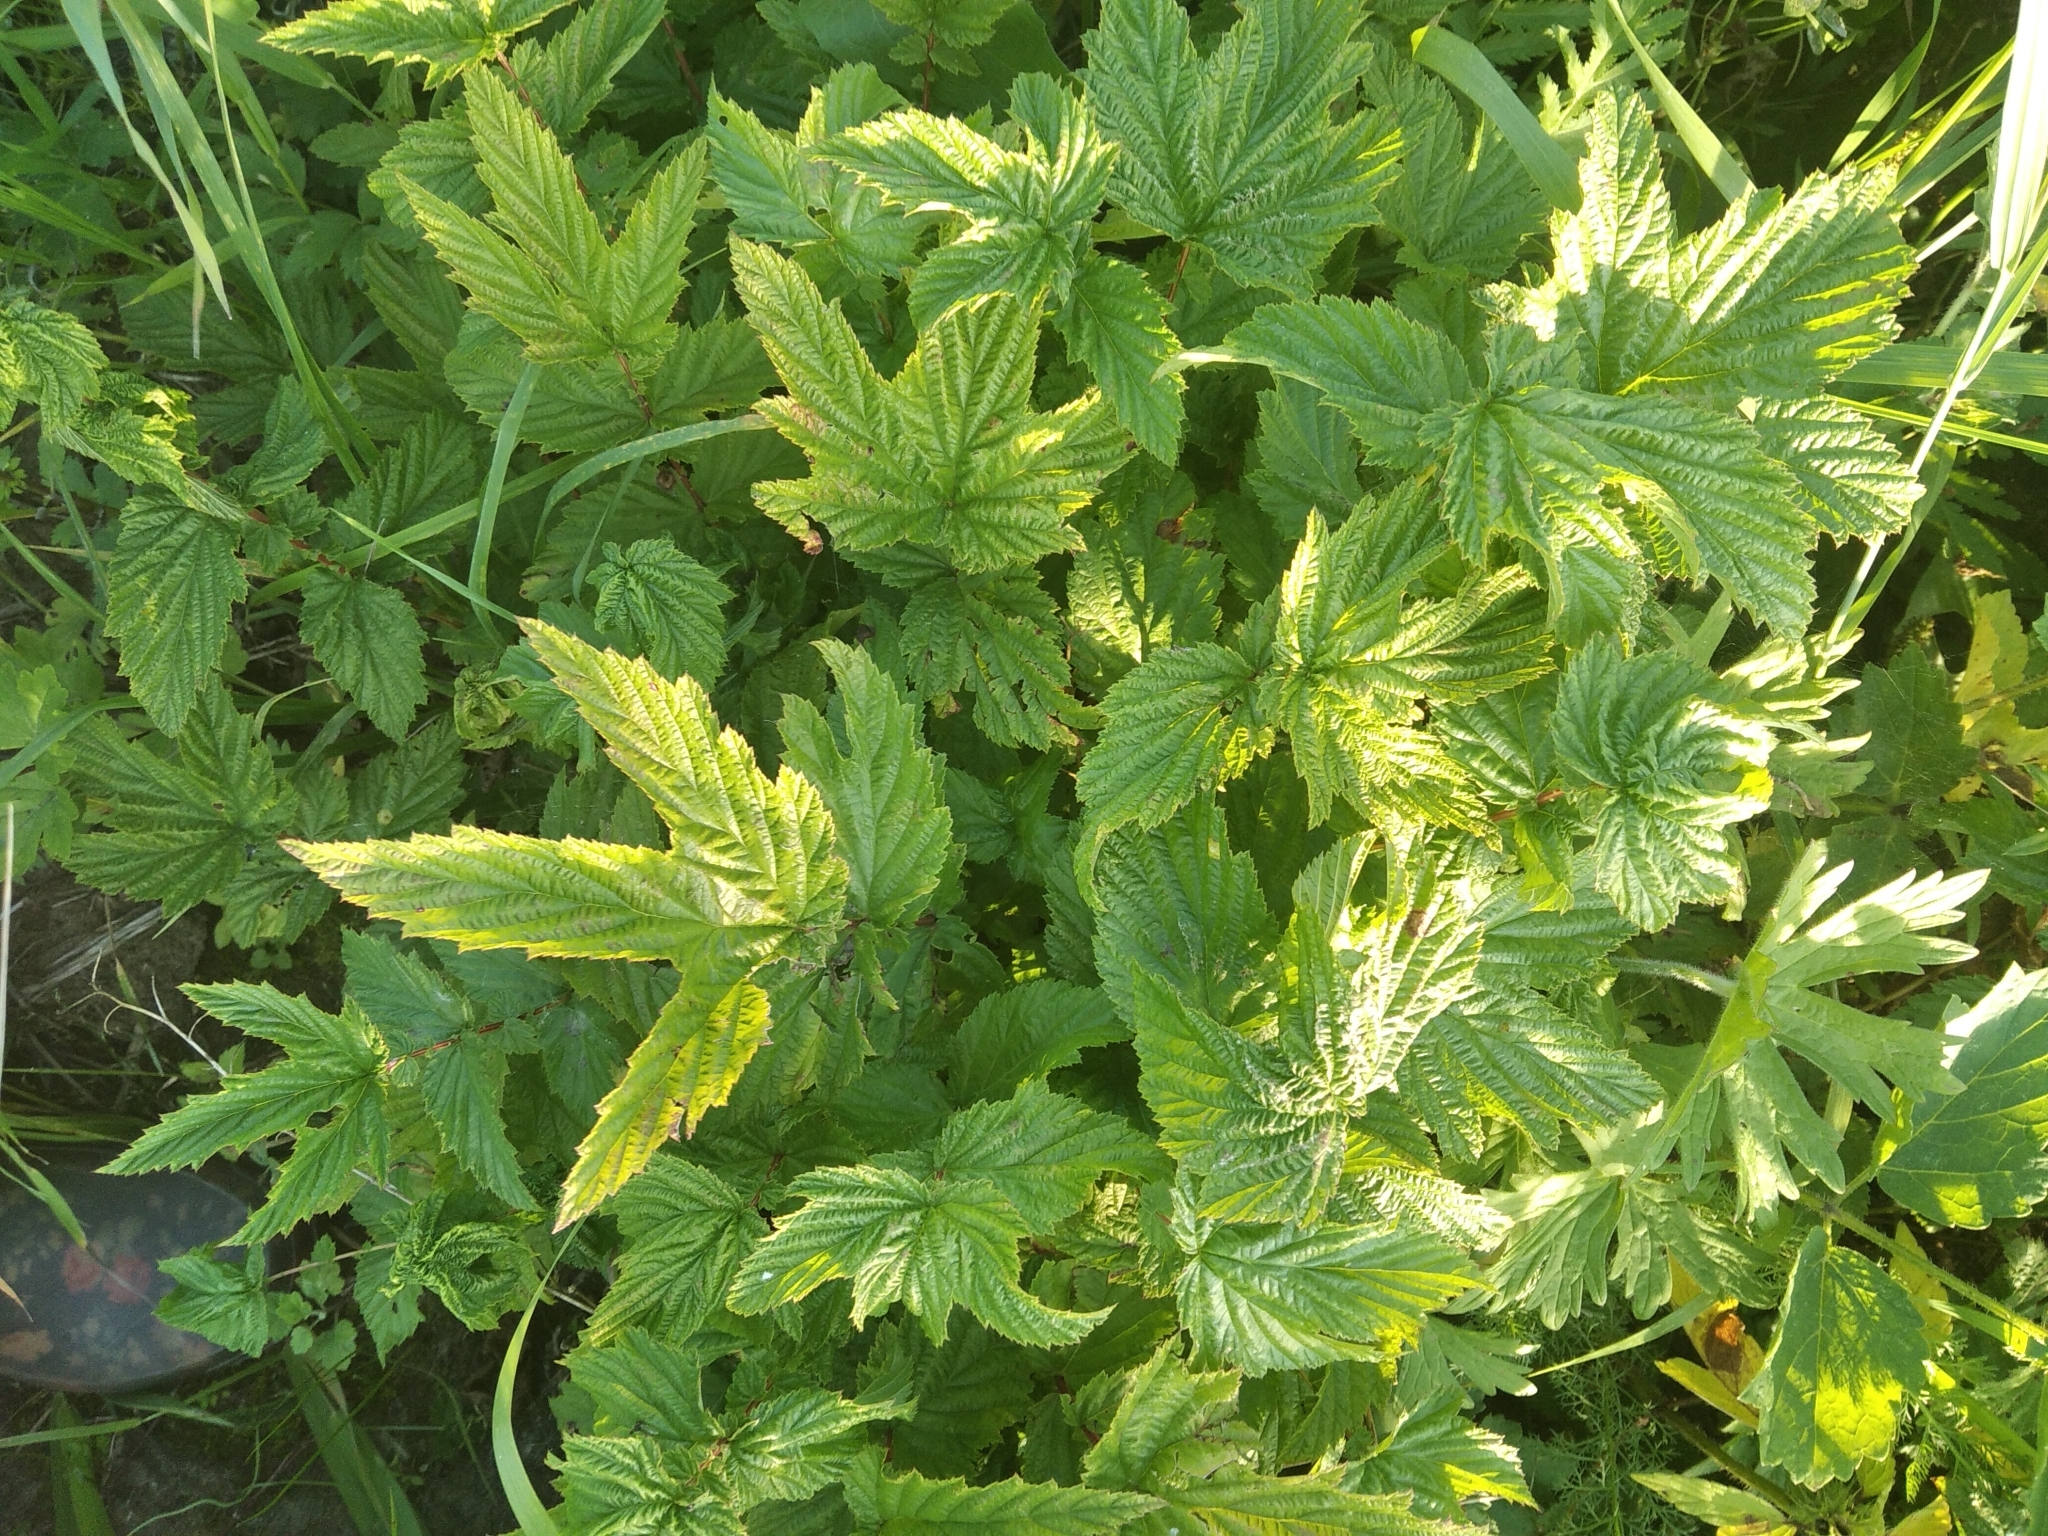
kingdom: Plantae
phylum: Tracheophyta
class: Magnoliopsida
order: Rosales
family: Rosaceae
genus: Filipendula
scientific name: Filipendula ulmaria
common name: Meadowsweet
